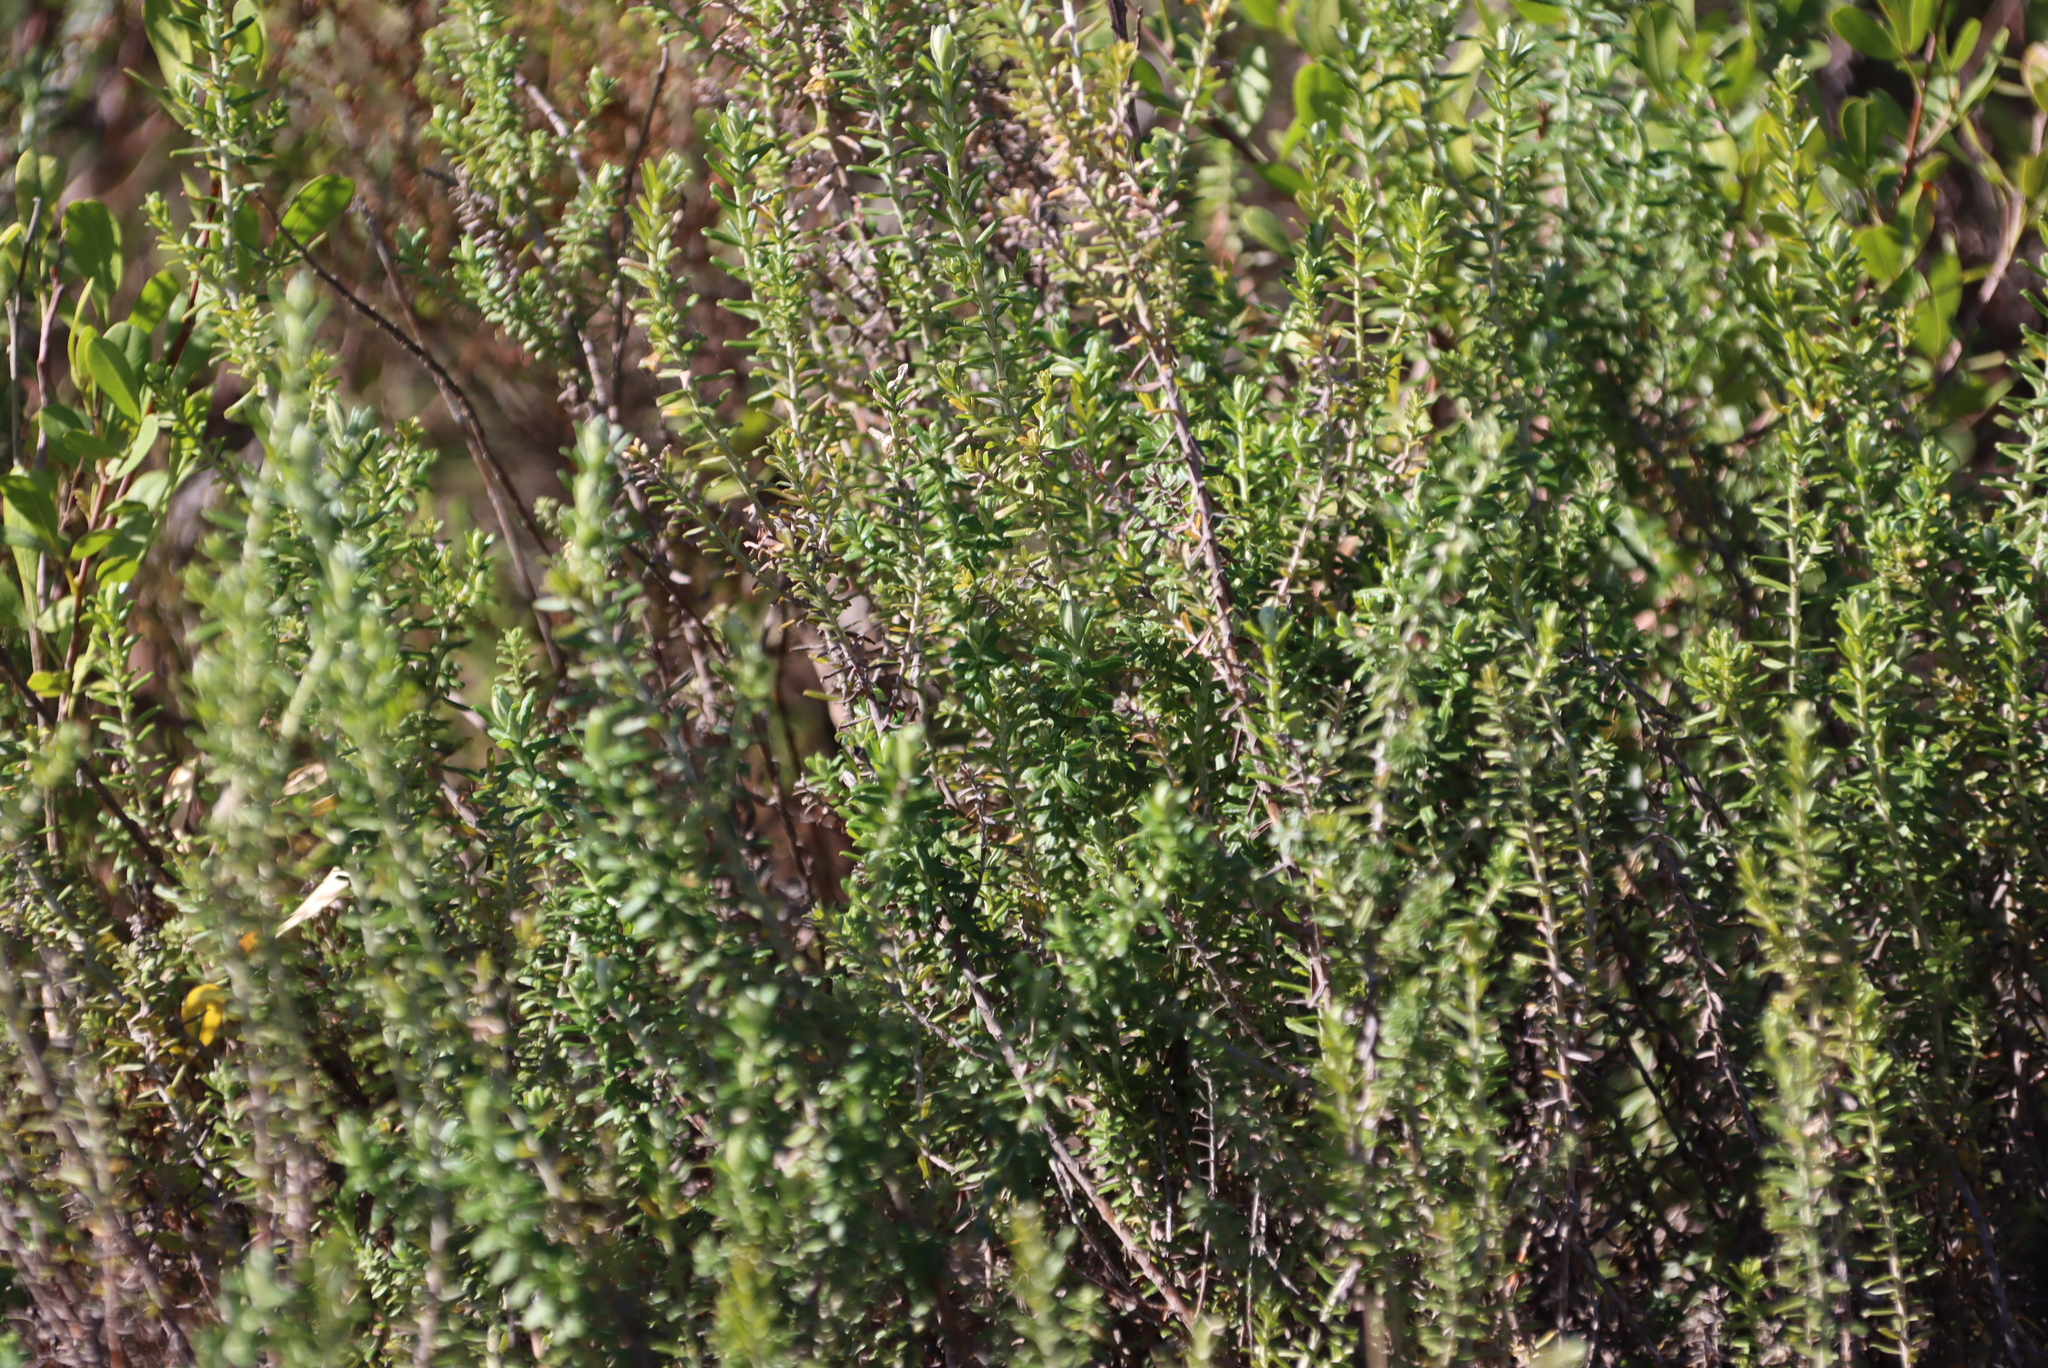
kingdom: Plantae
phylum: Tracheophyta
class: Magnoliopsida
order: Asterales
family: Asteraceae
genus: Helichrysum
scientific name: Helichrysum cymosum
